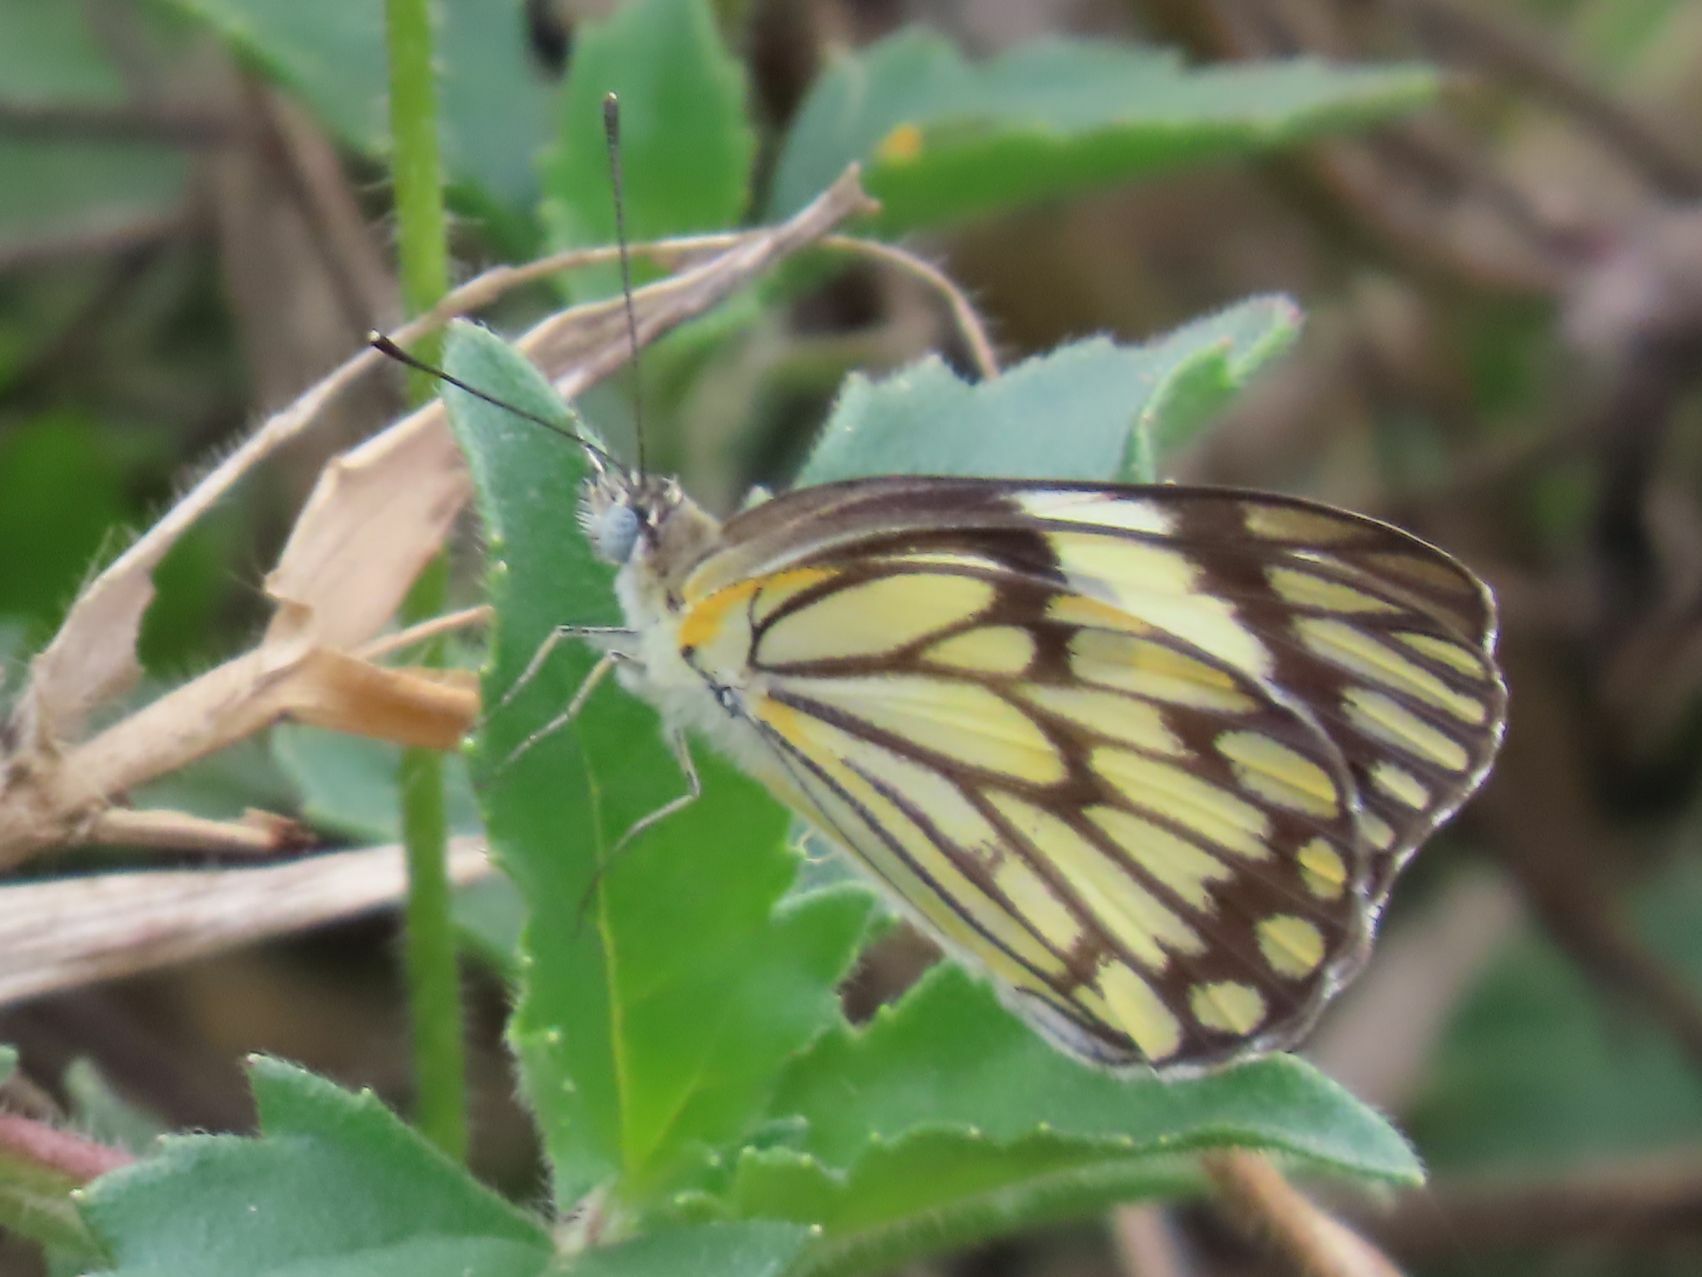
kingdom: Animalia
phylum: Arthropoda
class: Insecta
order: Lepidoptera
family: Pieridae
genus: Belenois
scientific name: Belenois aurota
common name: Brown-veined white
